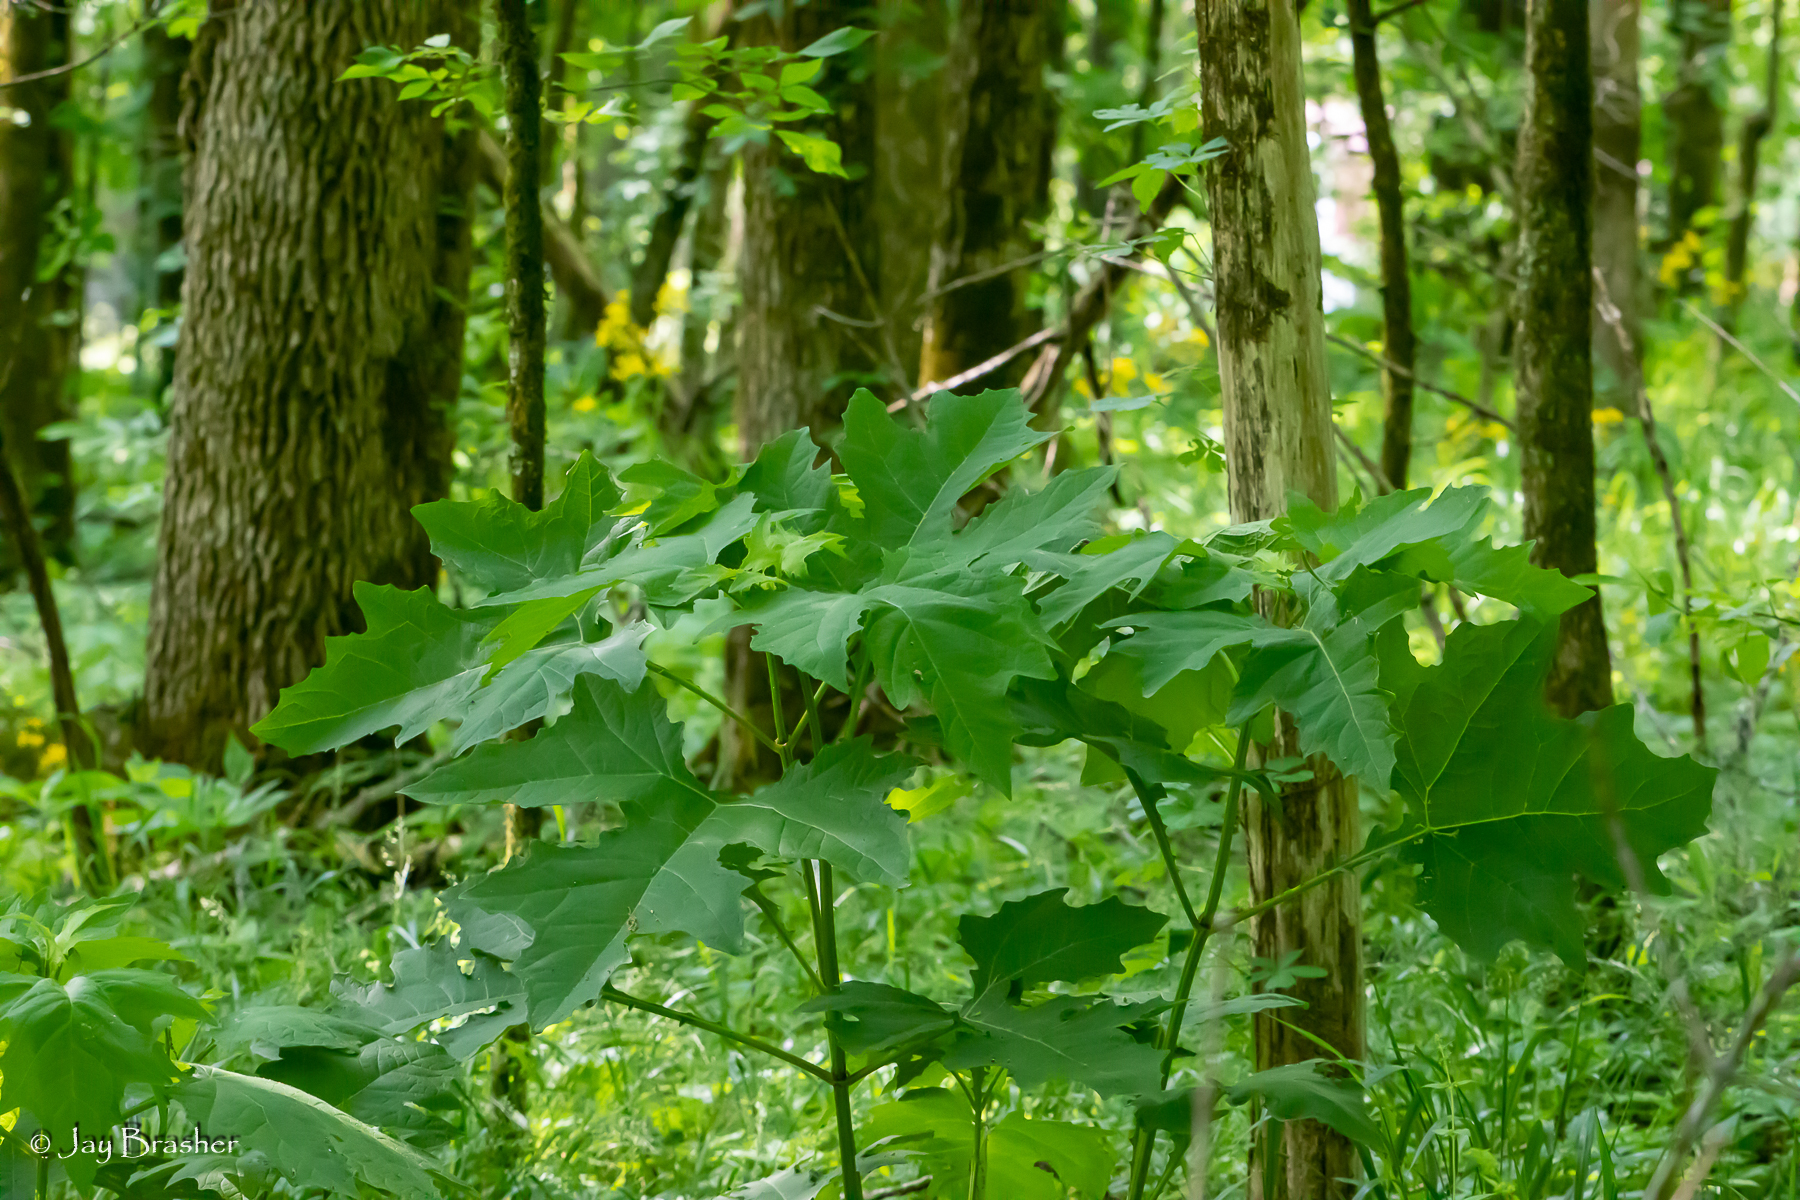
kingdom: Plantae
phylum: Tracheophyta
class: Magnoliopsida
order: Asterales
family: Asteraceae
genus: Smallanthus
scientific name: Smallanthus uvedalia
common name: Bear's-foot
